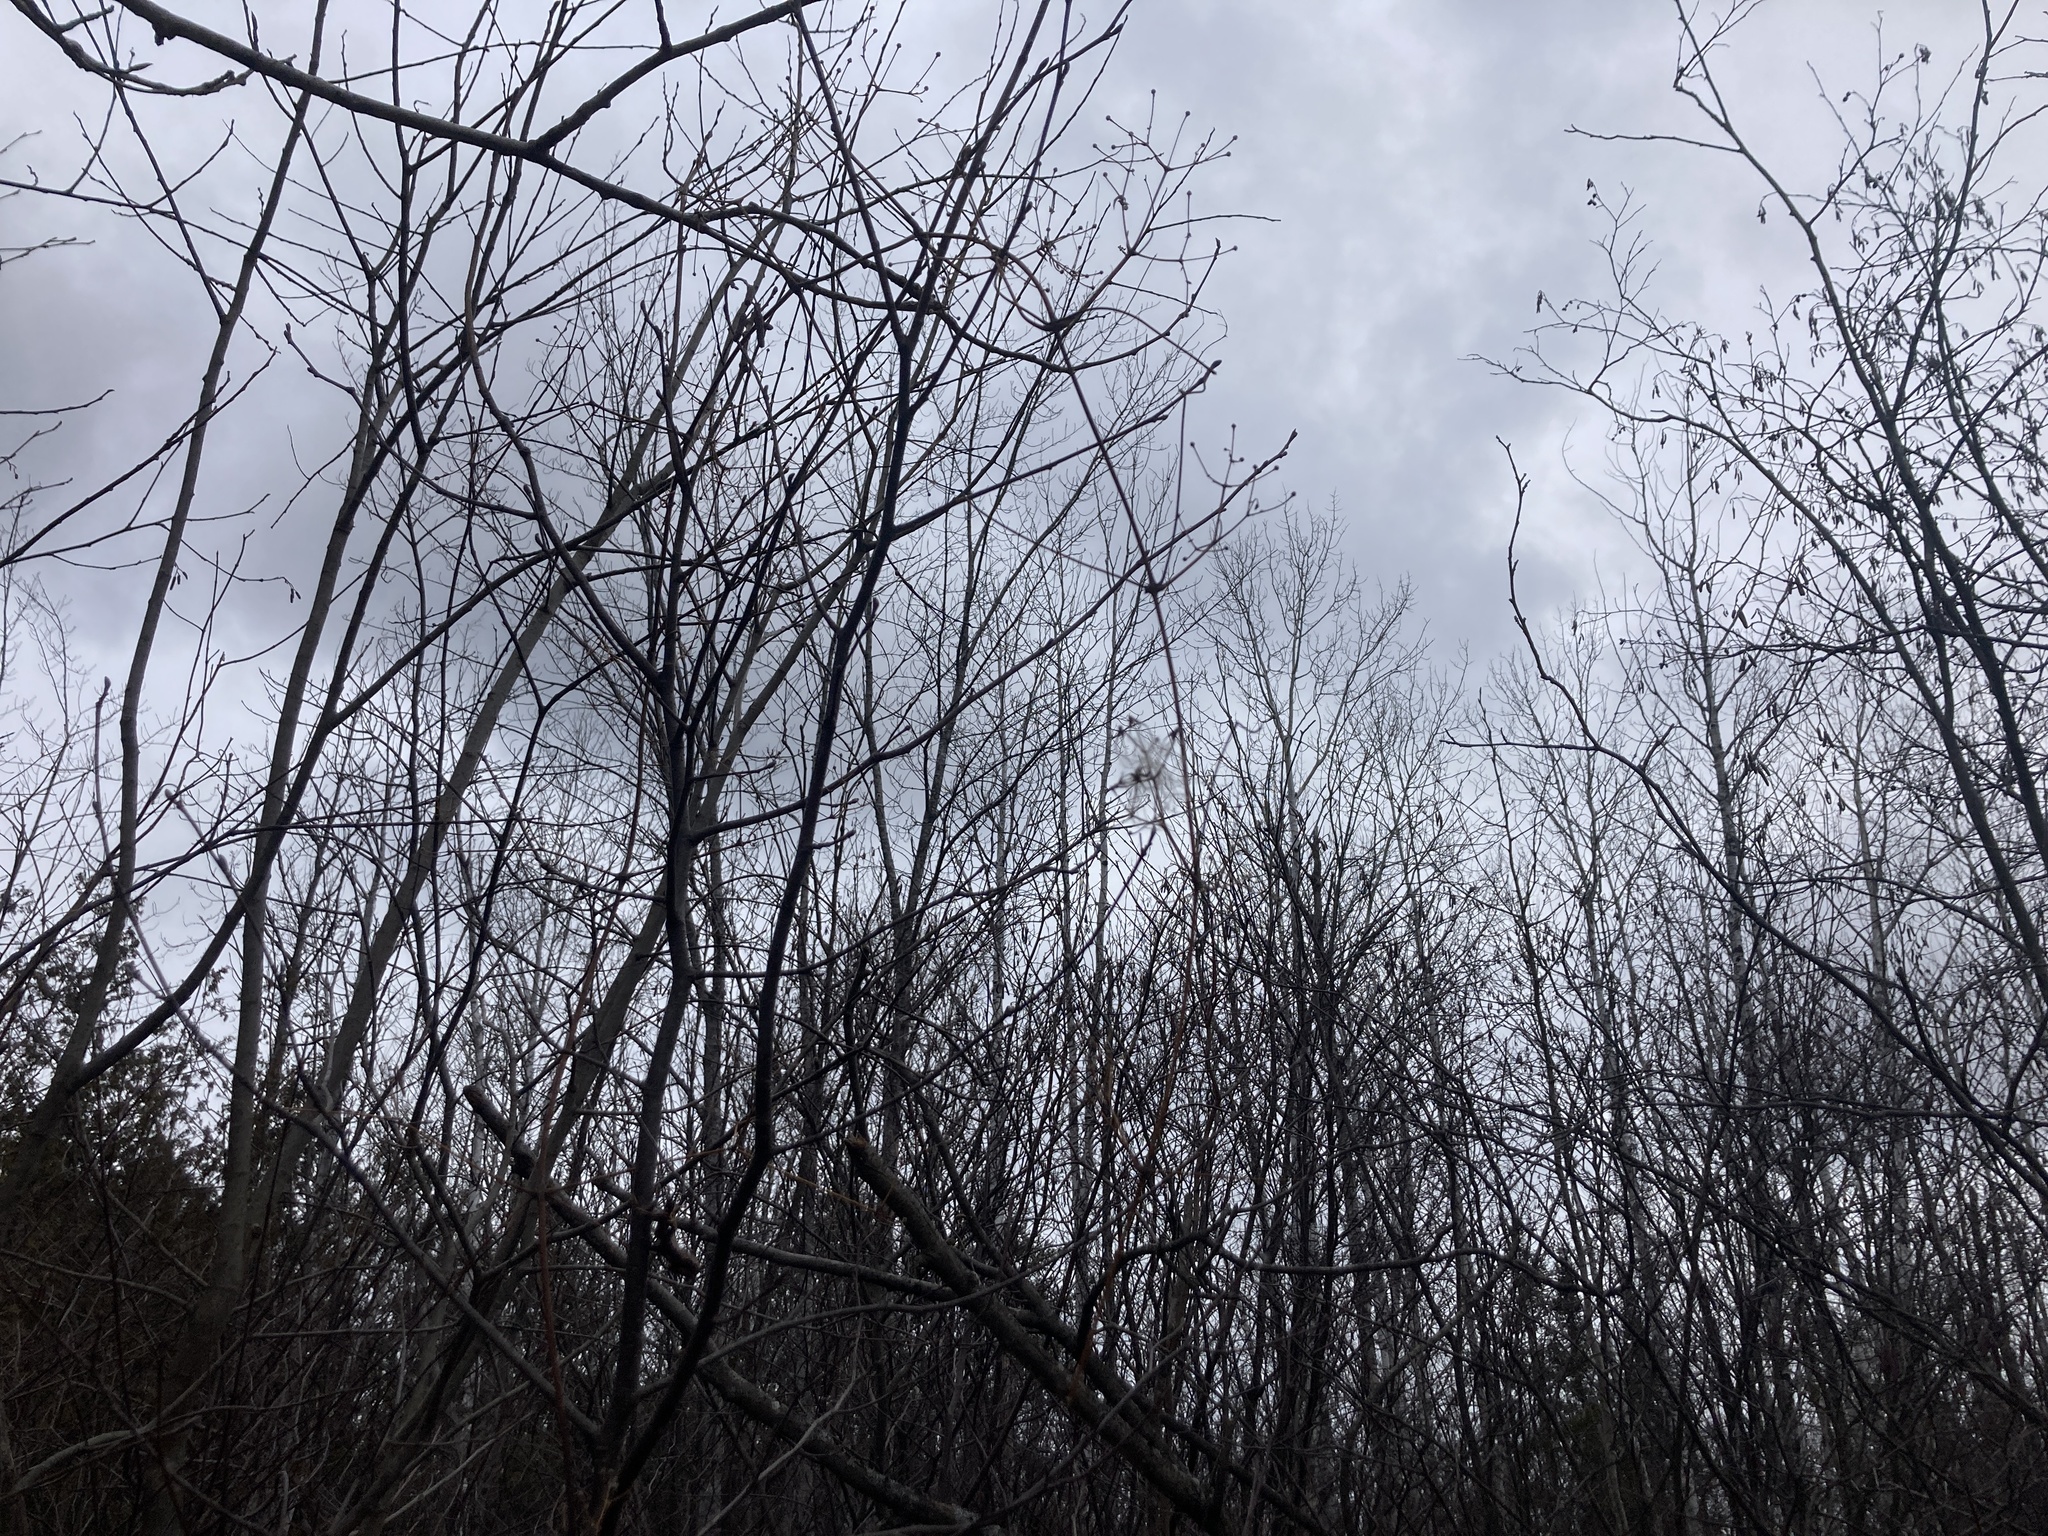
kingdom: Plantae
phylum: Tracheophyta
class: Magnoliopsida
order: Ranunculales
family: Ranunculaceae
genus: Clematis
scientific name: Clematis virginiana
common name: Virgin's-bower
